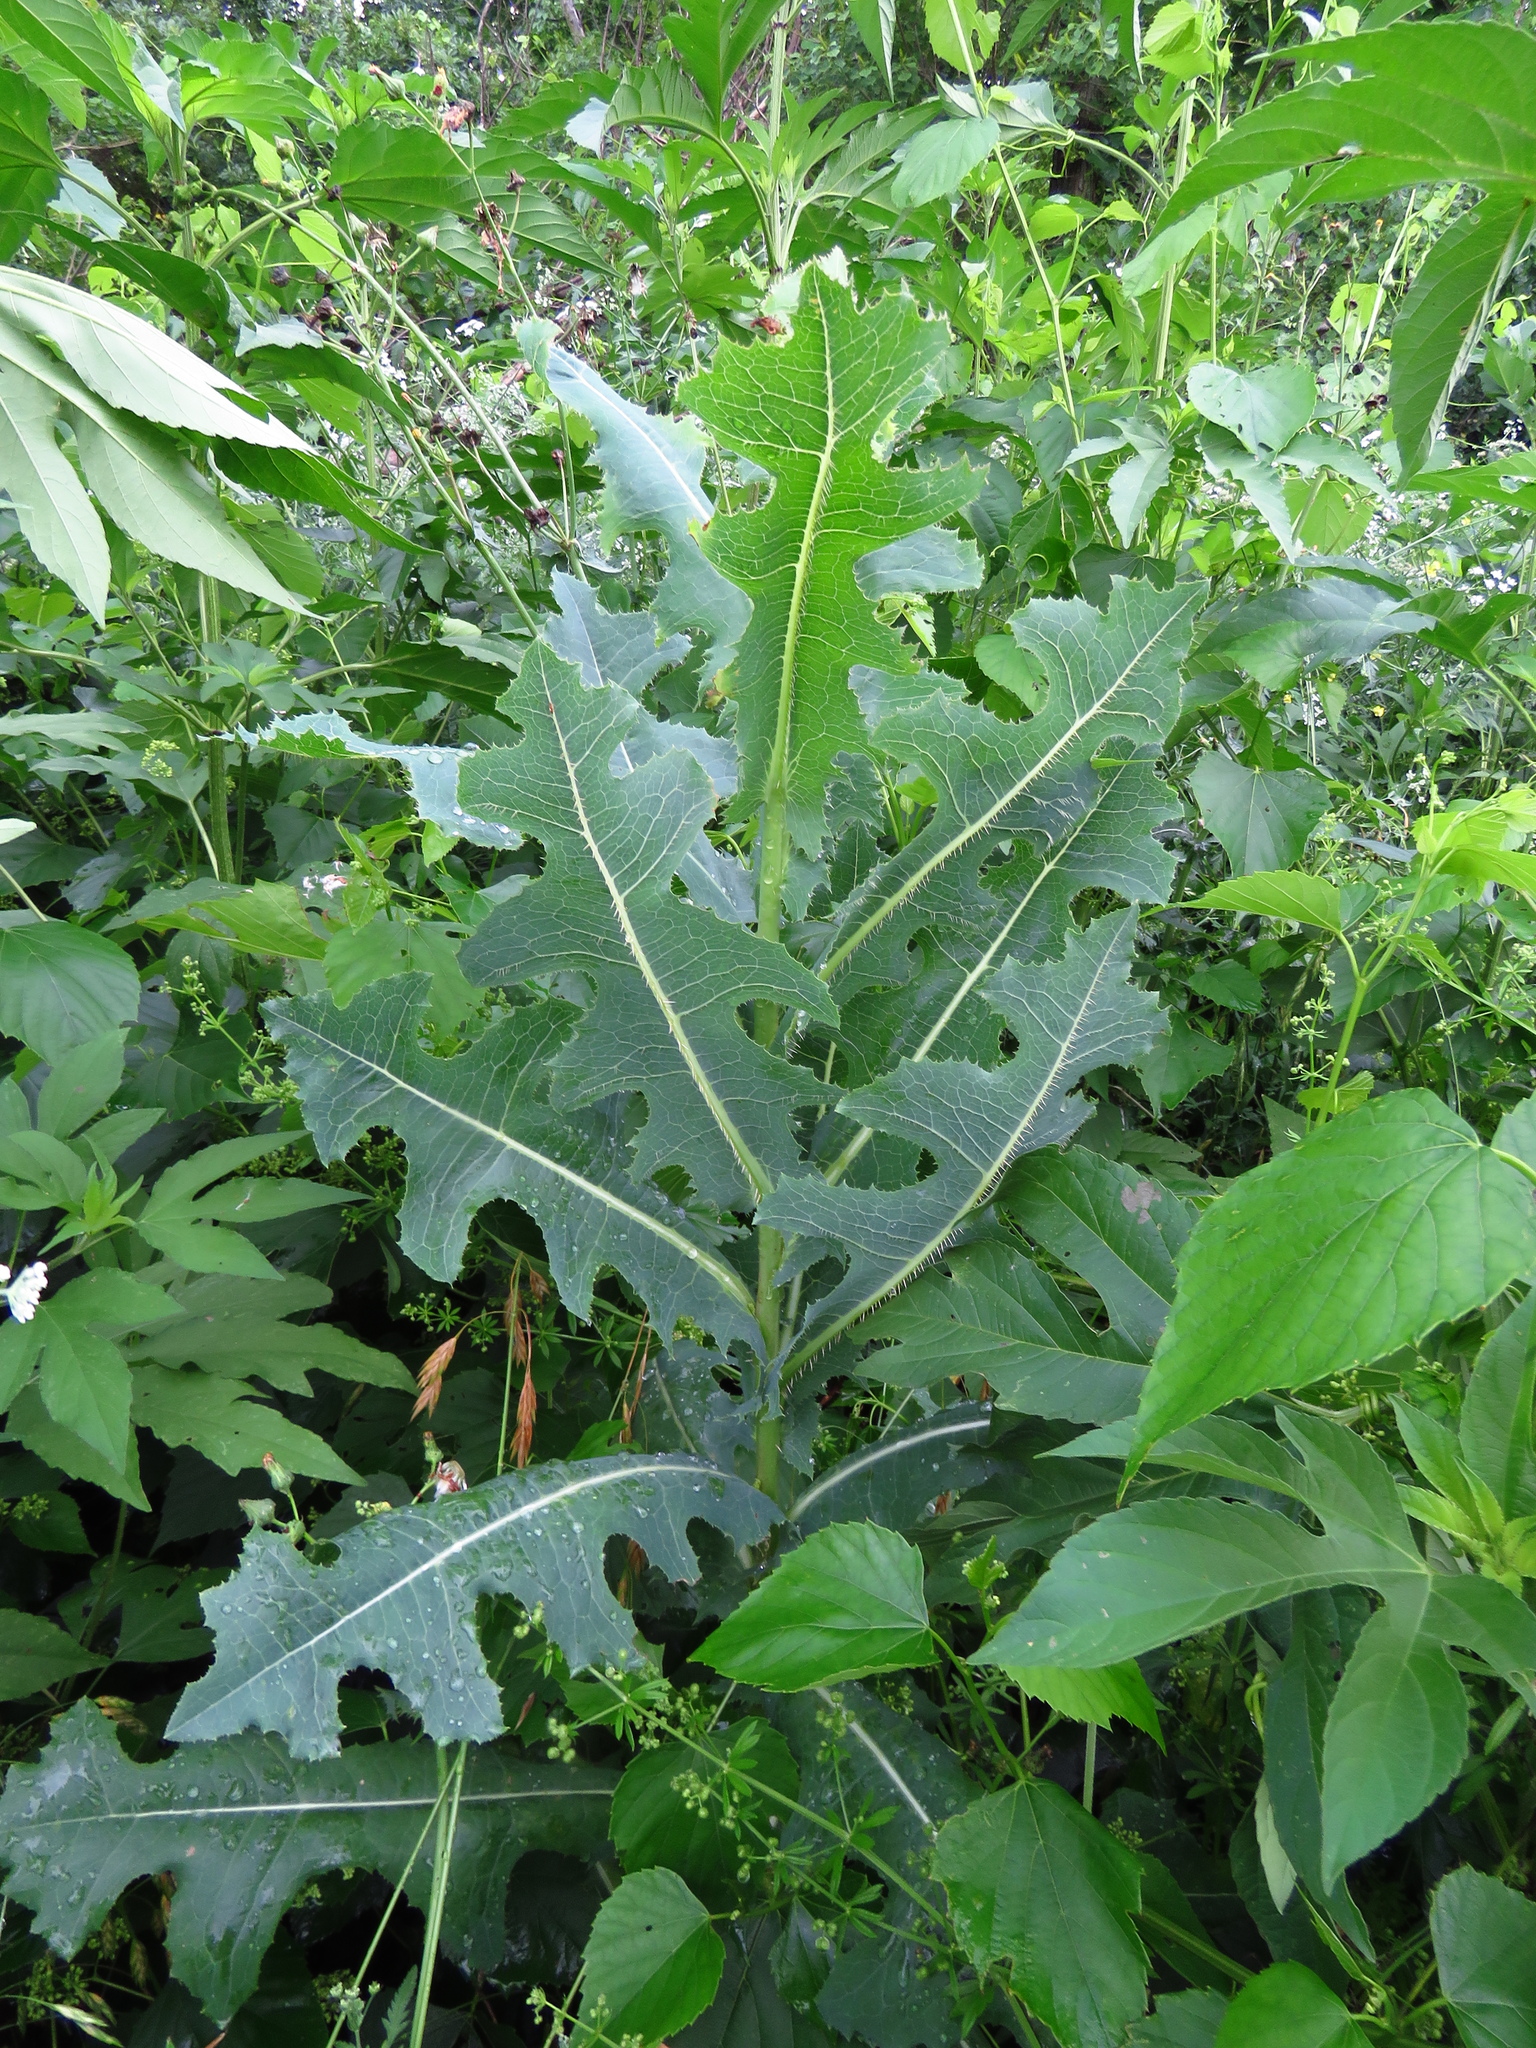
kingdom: Plantae
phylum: Tracheophyta
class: Magnoliopsida
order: Asterales
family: Asteraceae
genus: Lactuca
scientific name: Lactuca serriola
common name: Prickly lettuce
